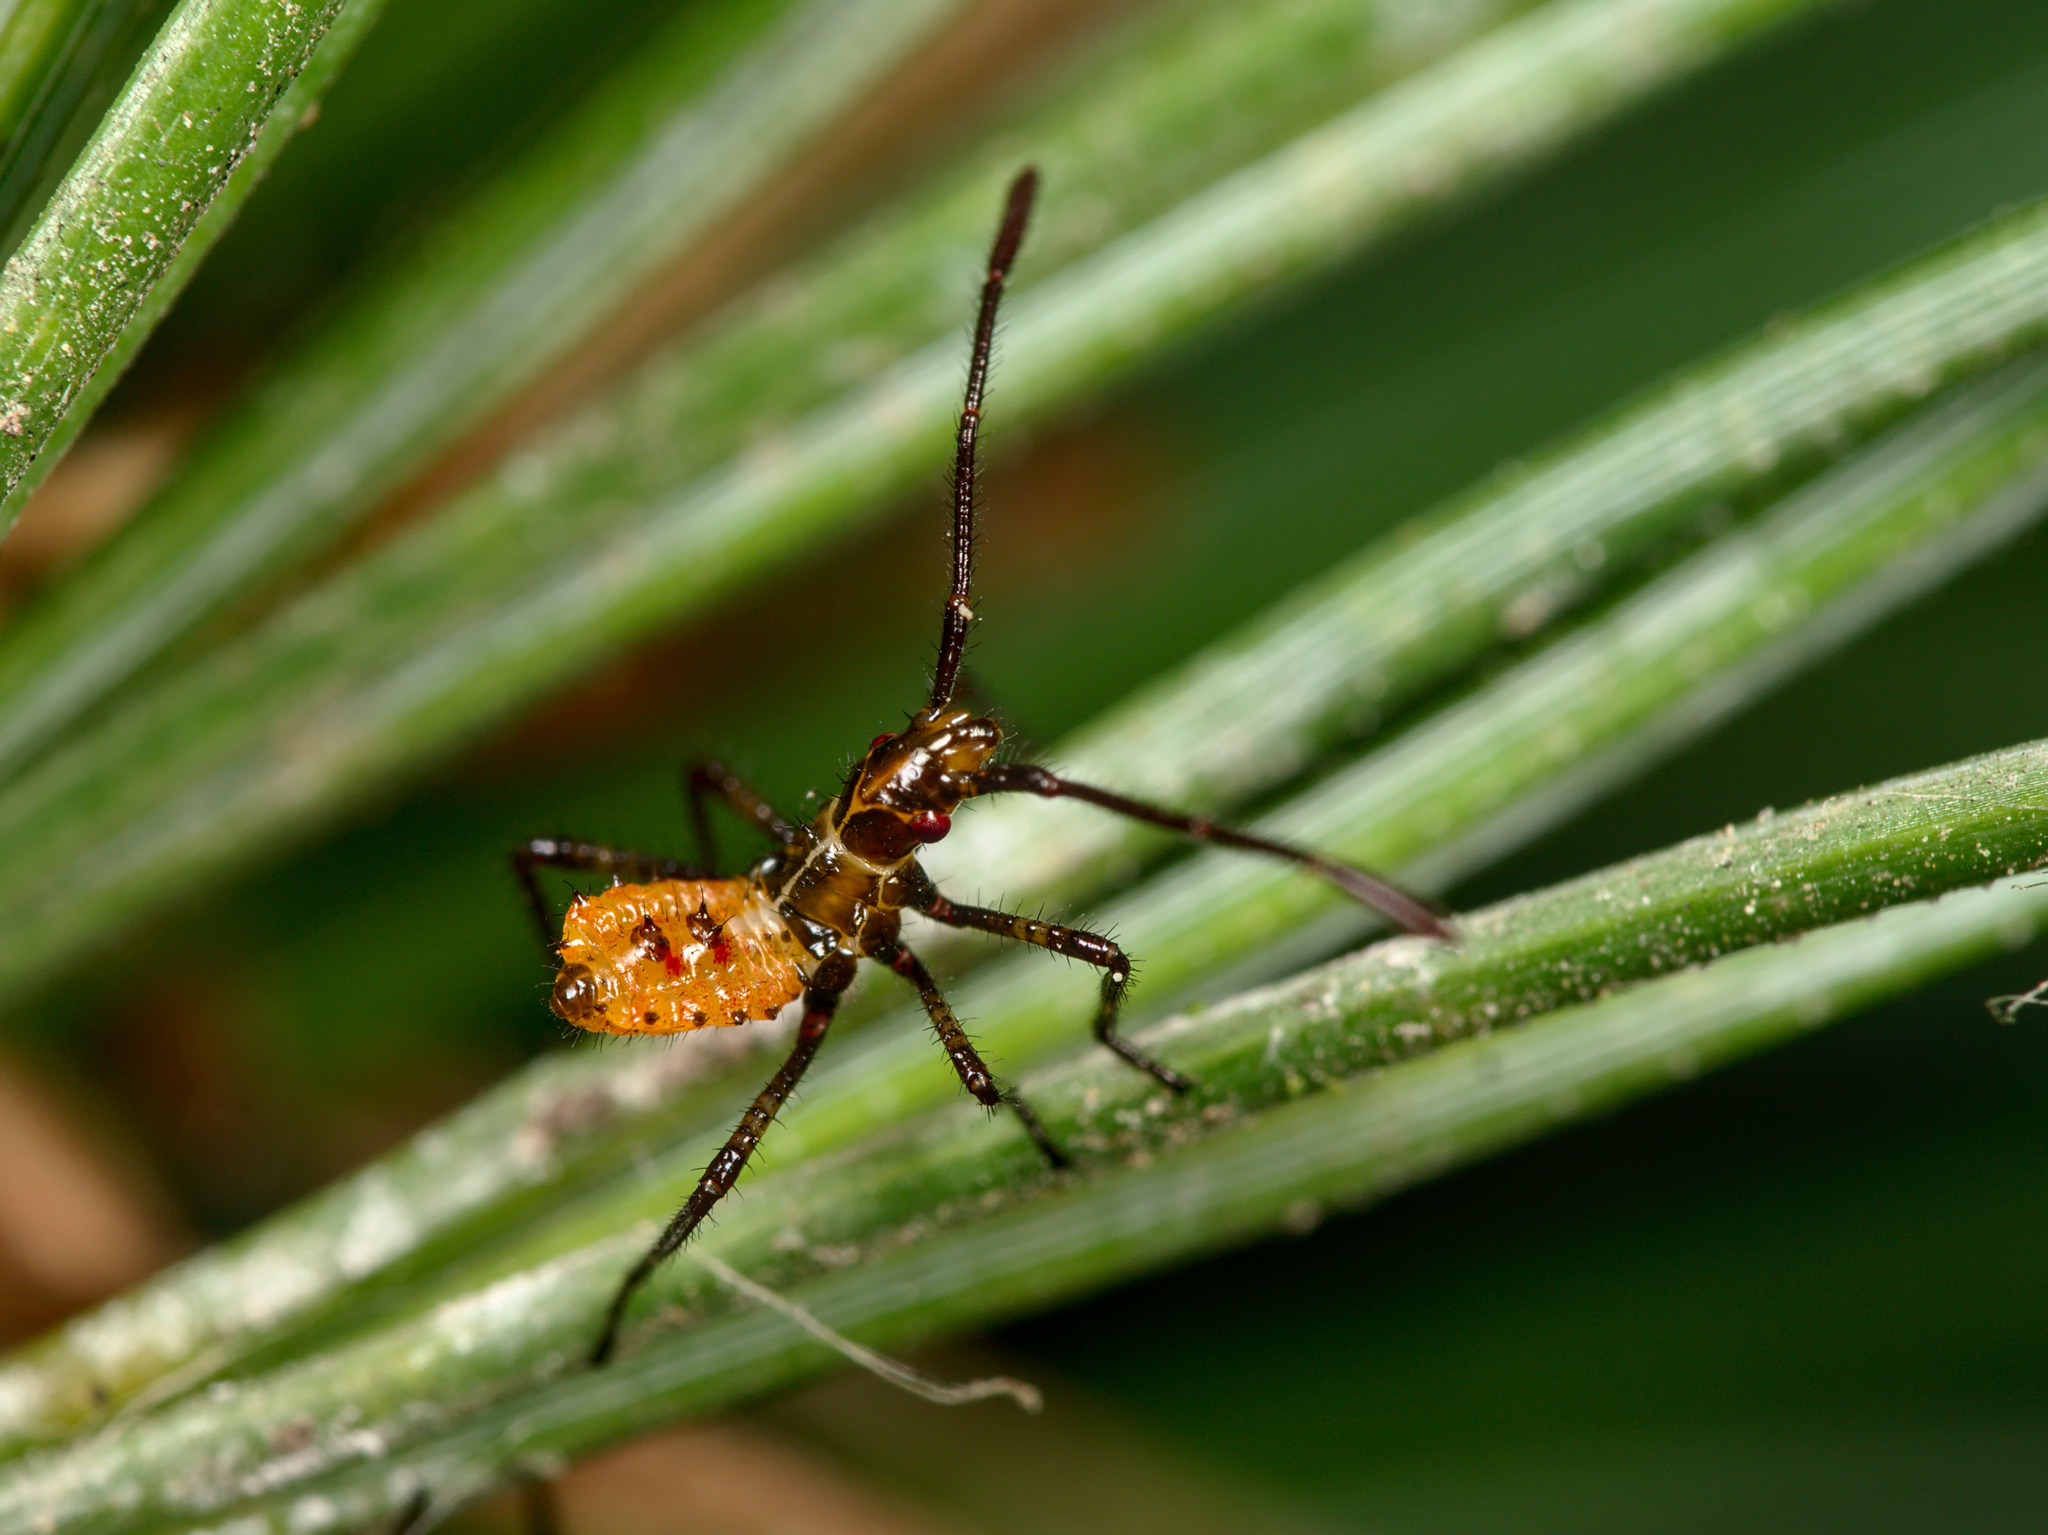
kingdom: Animalia
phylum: Arthropoda
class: Insecta
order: Hemiptera
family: Coreidae
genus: Leptoglossus
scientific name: Leptoglossus occidentalis
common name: Western conifer-seed bug
